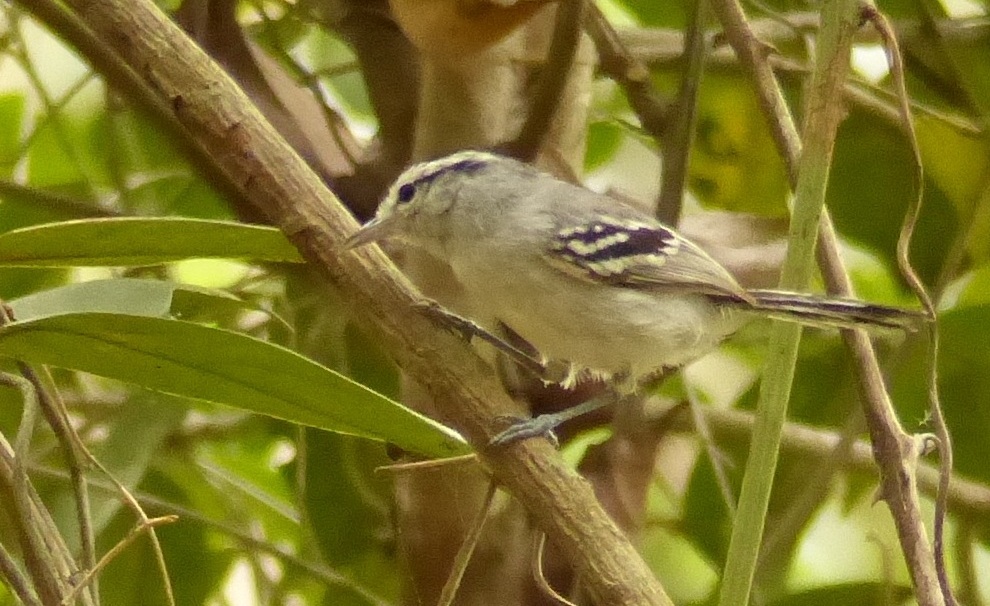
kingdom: Animalia
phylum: Chordata
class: Aves
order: Passeriformes
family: Thamnophilidae
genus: Herpsilochmus
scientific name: Herpsilochmus atricapillus
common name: Black-capped antwren
